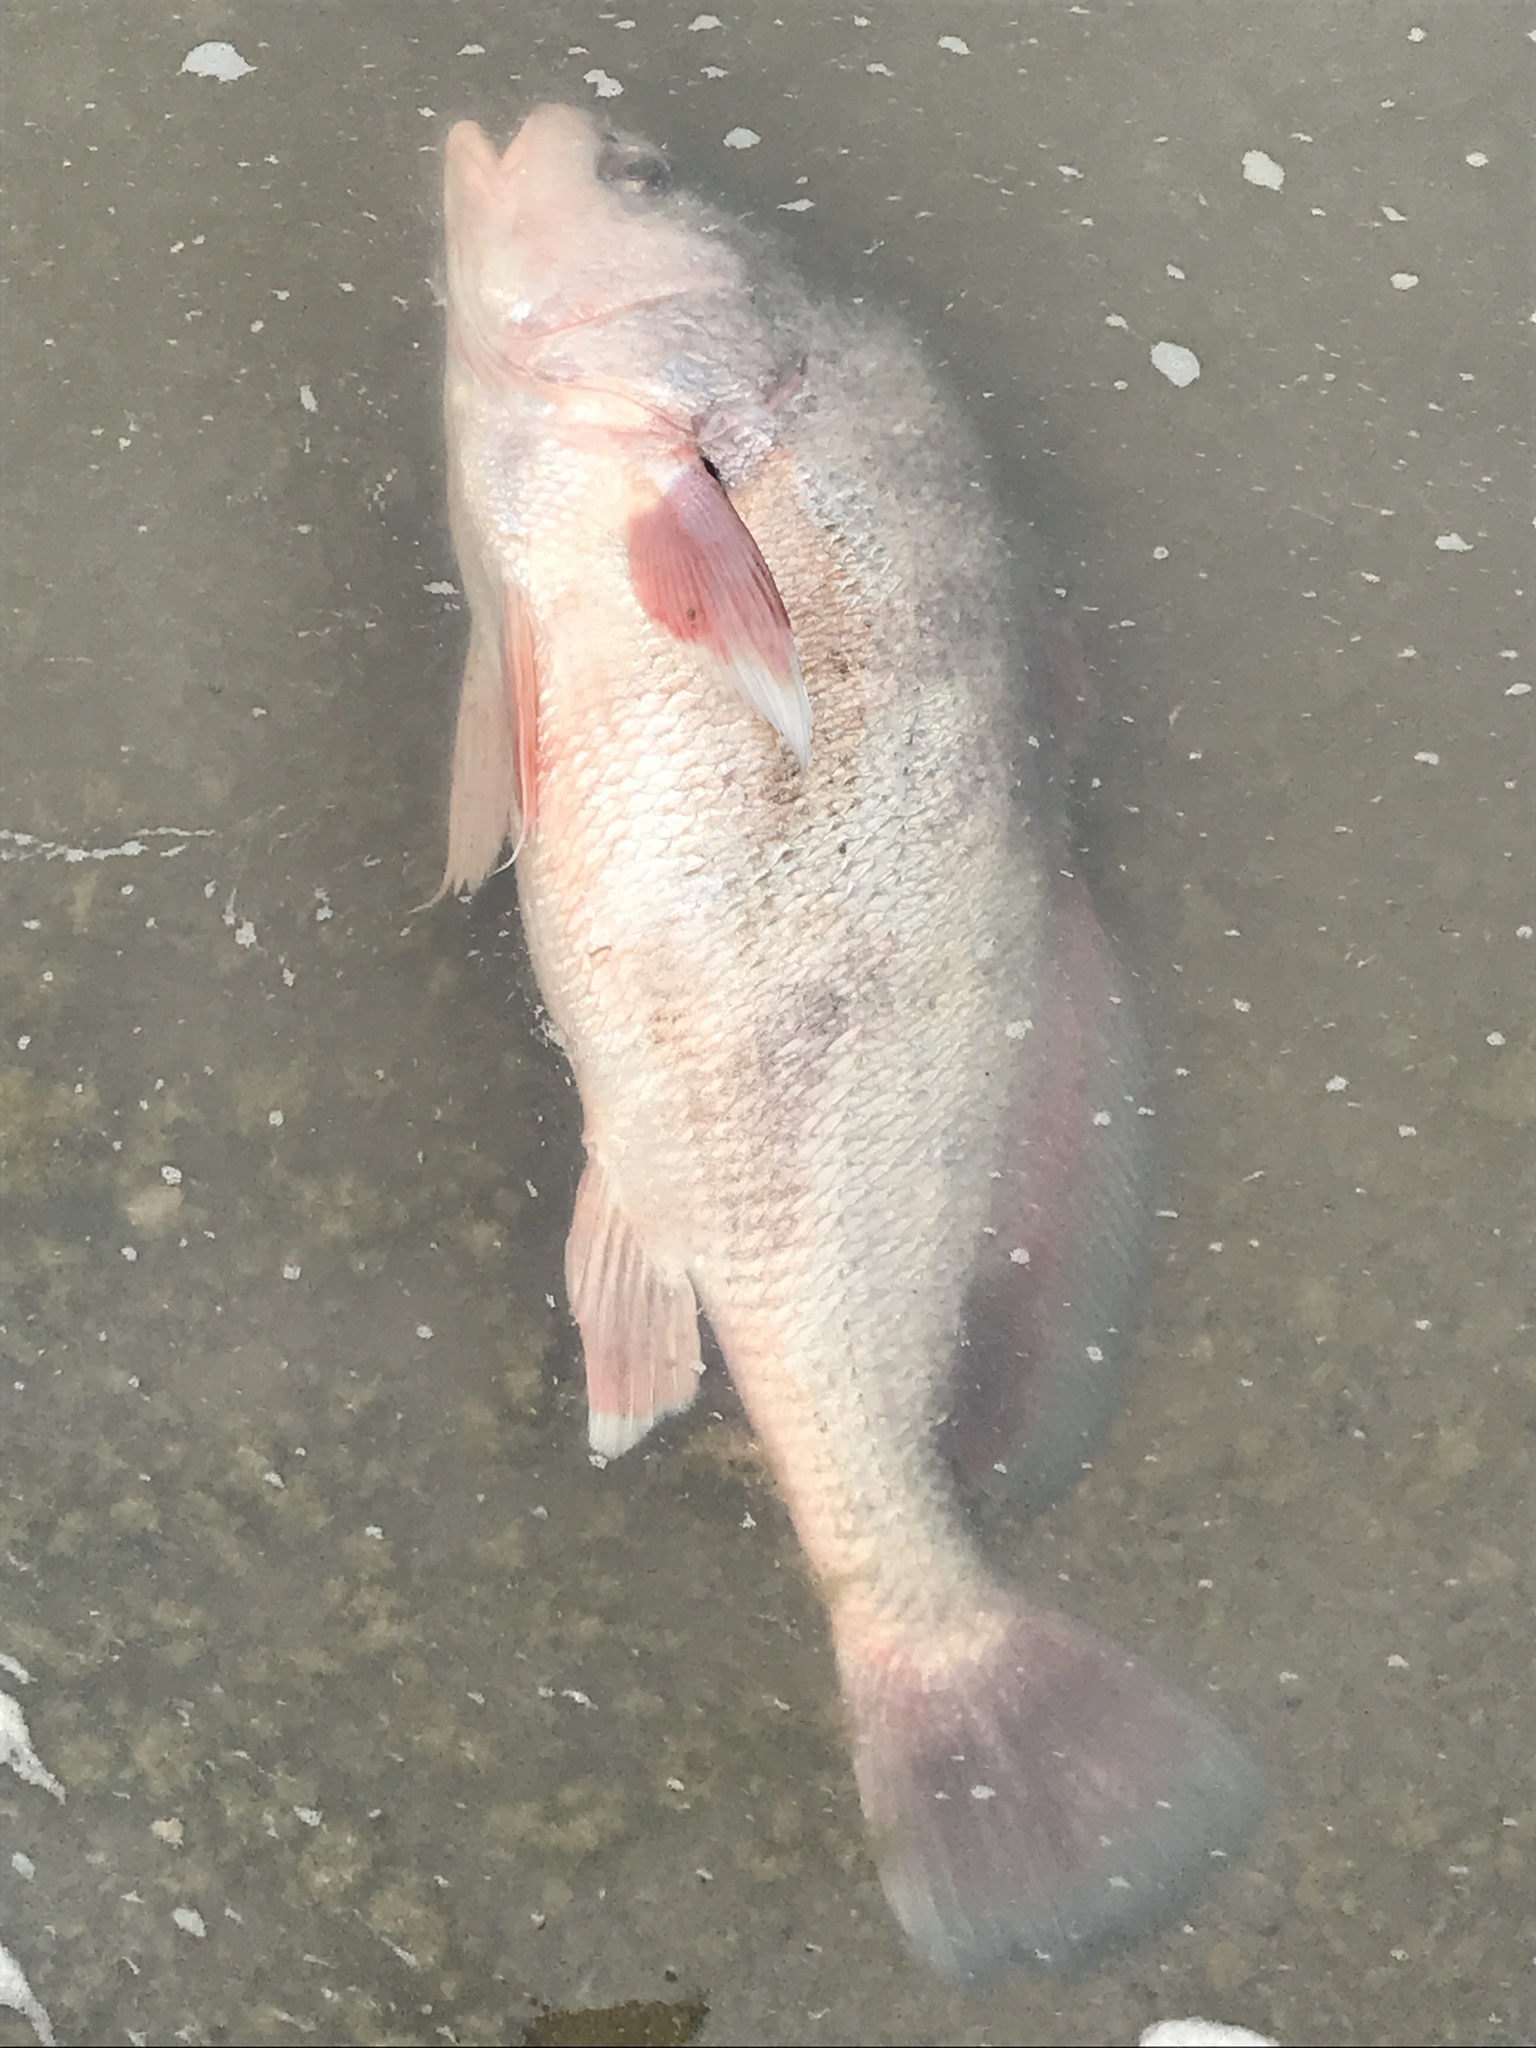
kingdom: Animalia
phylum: Chordata
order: Perciformes
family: Sciaenidae
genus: Aplodinotus
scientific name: Aplodinotus grunniens
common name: Freshwater drum
